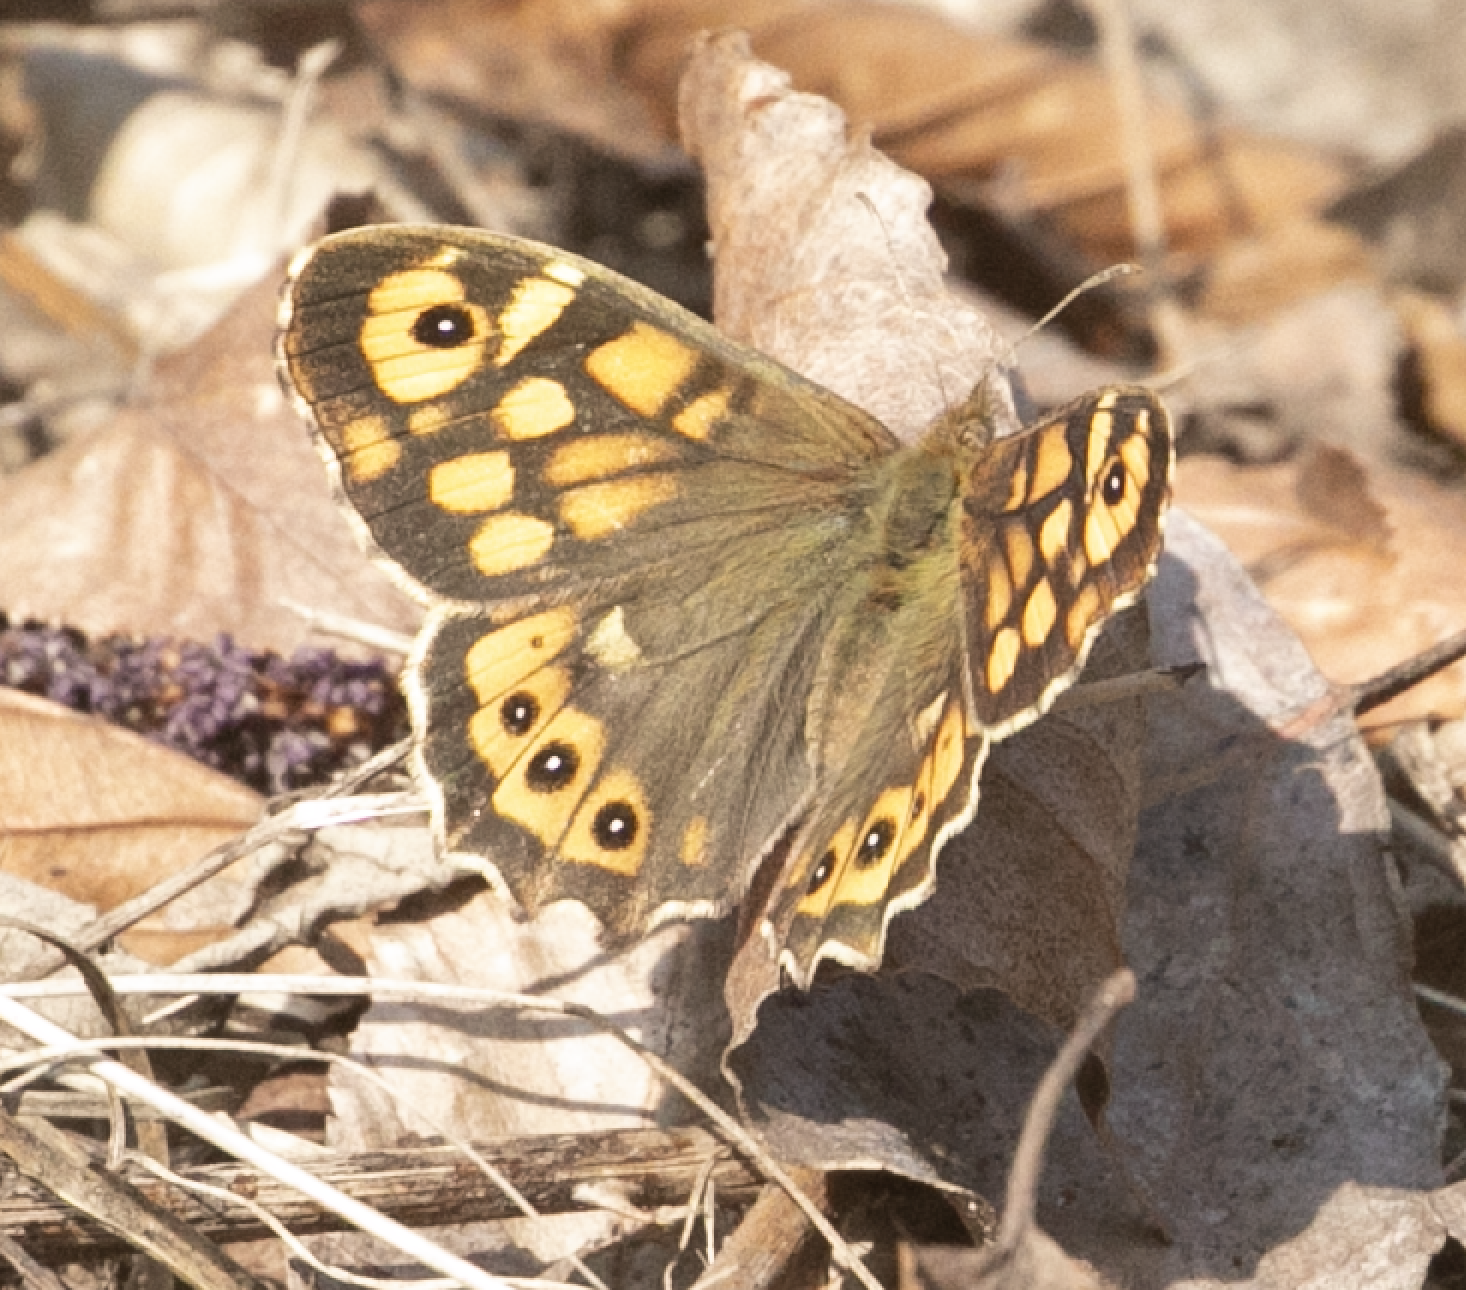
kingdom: Animalia
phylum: Arthropoda
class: Insecta
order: Lepidoptera
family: Nymphalidae
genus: Pararge
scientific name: Pararge aegeria
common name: Speckled wood
